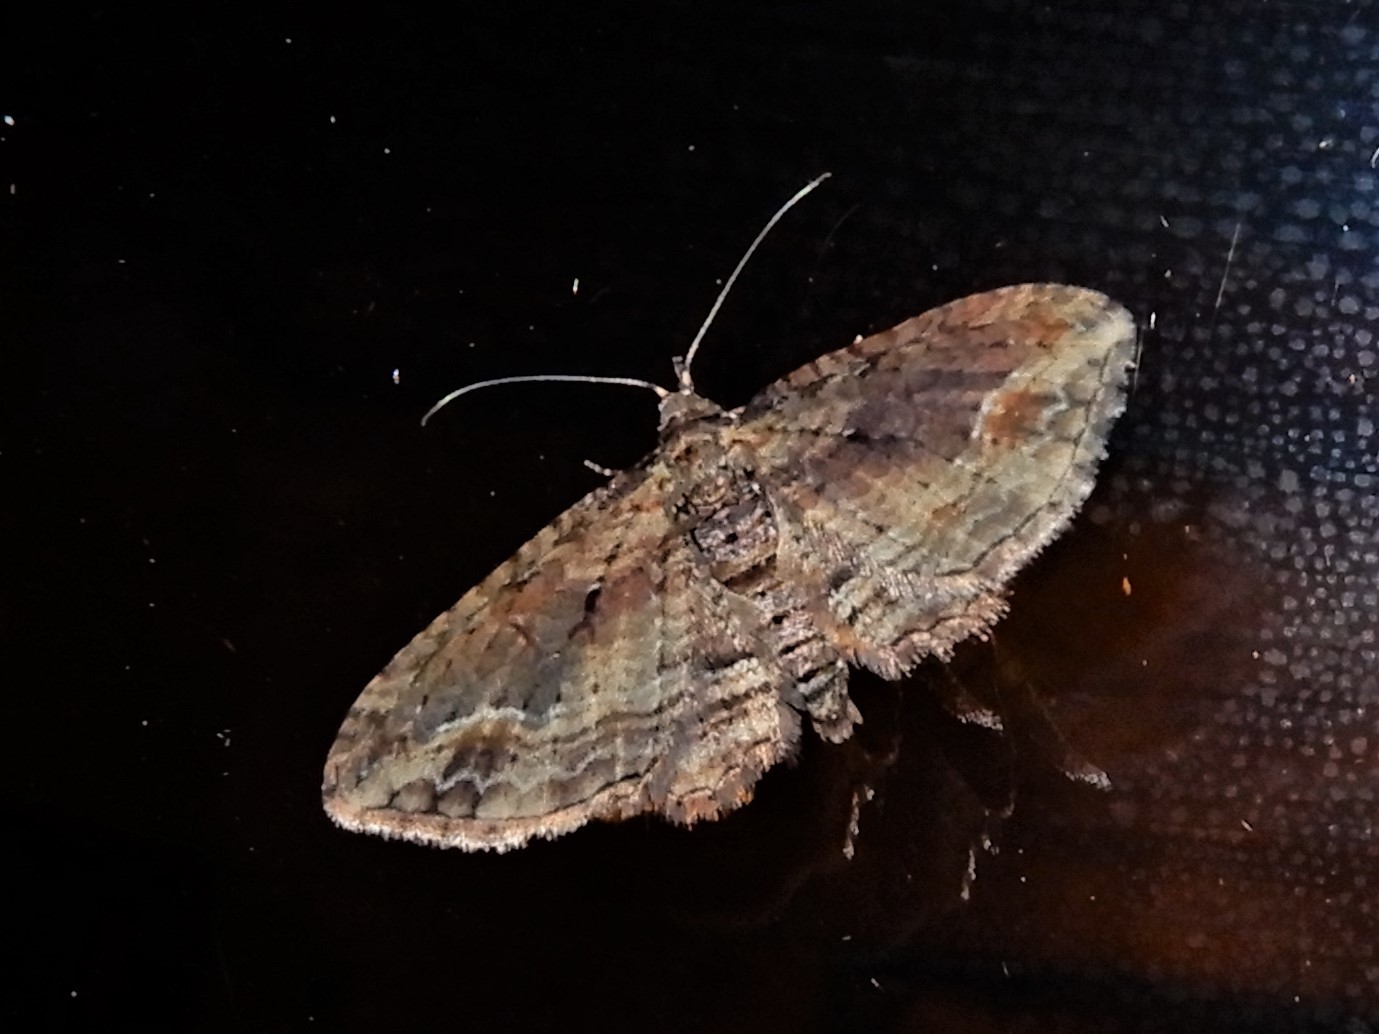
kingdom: Animalia
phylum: Arthropoda
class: Insecta
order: Lepidoptera
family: Geometridae
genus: Chloroclystis
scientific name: Chloroclystis filata
